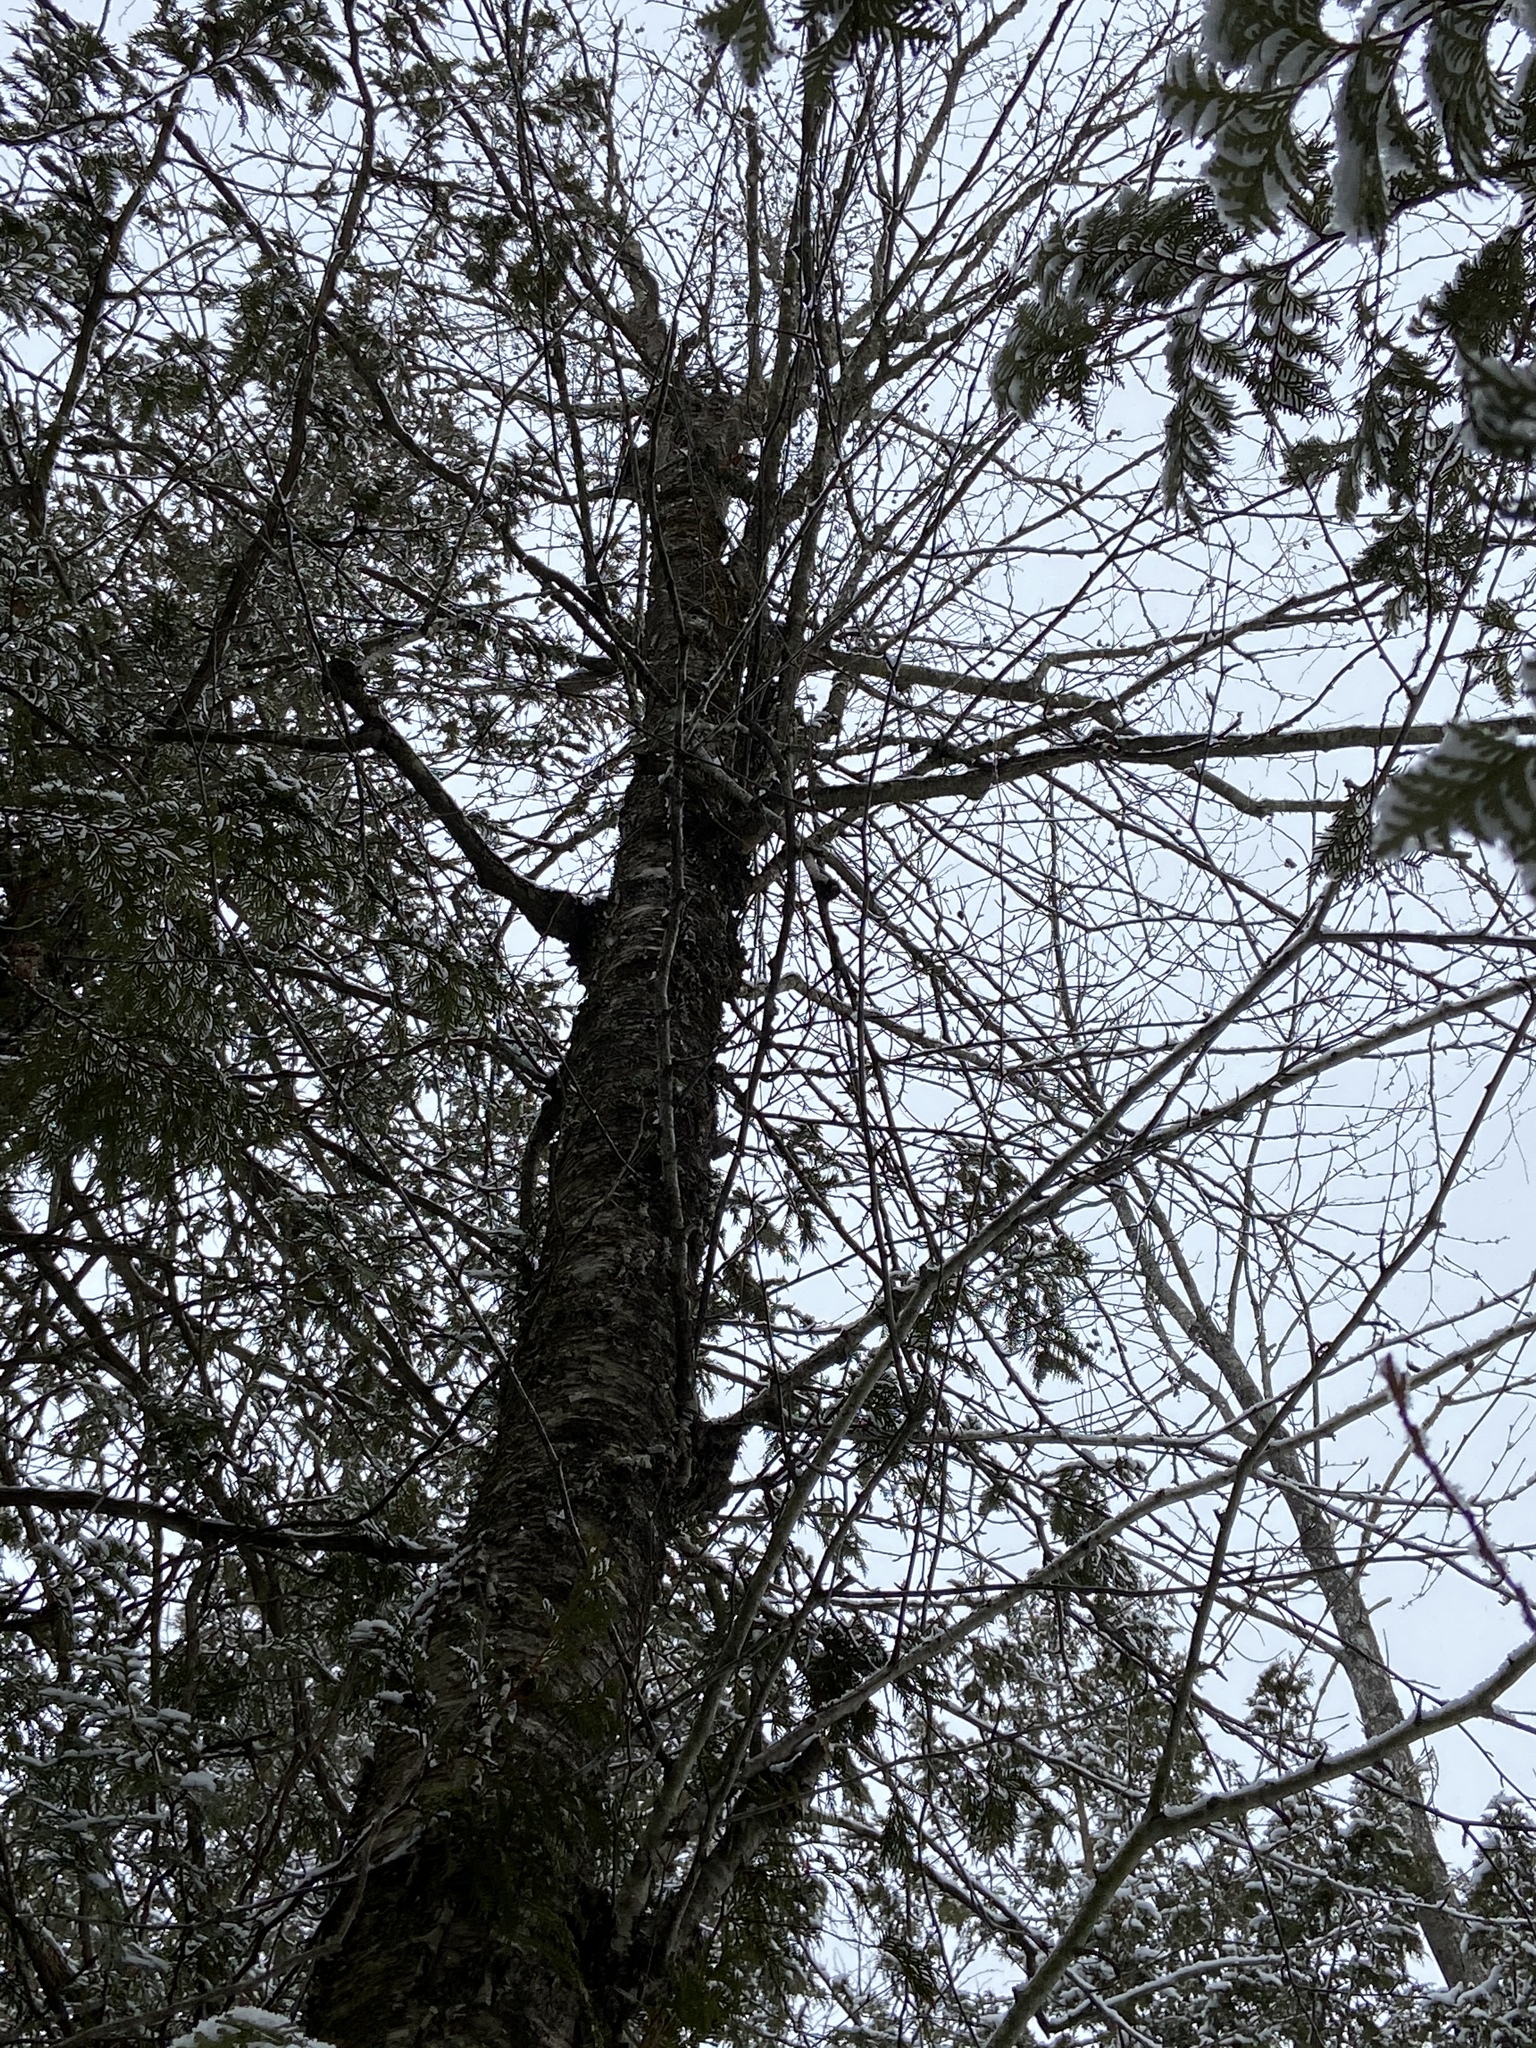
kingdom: Plantae
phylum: Tracheophyta
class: Magnoliopsida
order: Fagales
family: Betulaceae
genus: Betula
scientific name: Betula alleghaniensis
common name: Yellow birch
